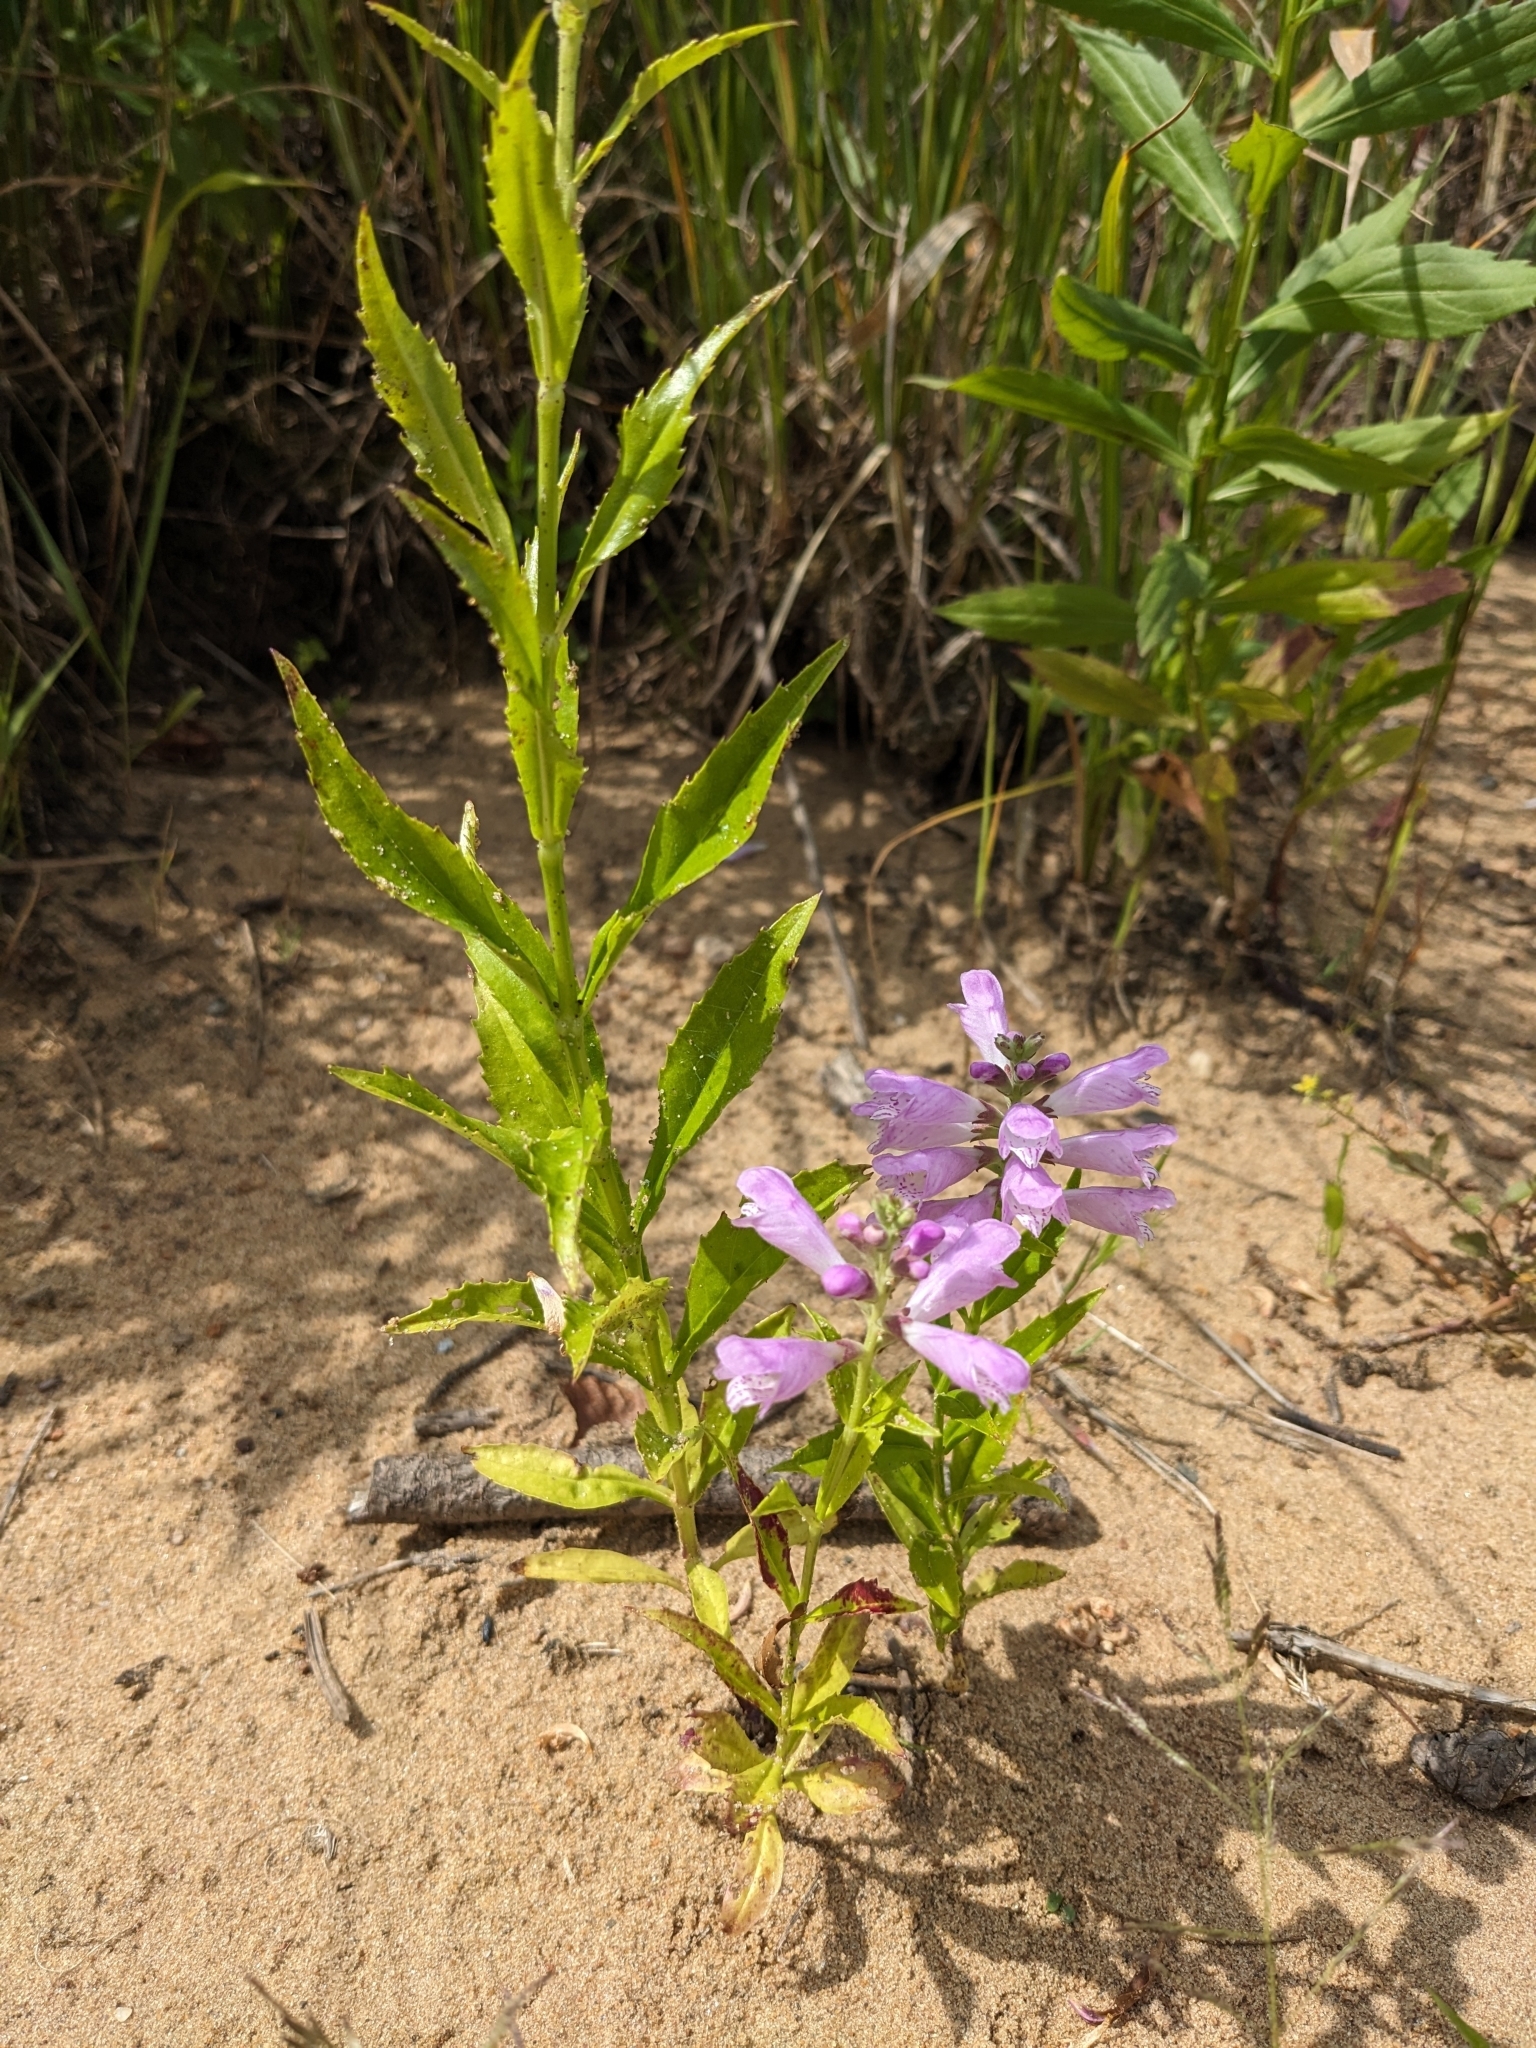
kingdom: Plantae
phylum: Tracheophyta
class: Magnoliopsida
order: Lamiales
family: Lamiaceae
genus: Physostegia
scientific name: Physostegia virginiana
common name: Obedient-plant
